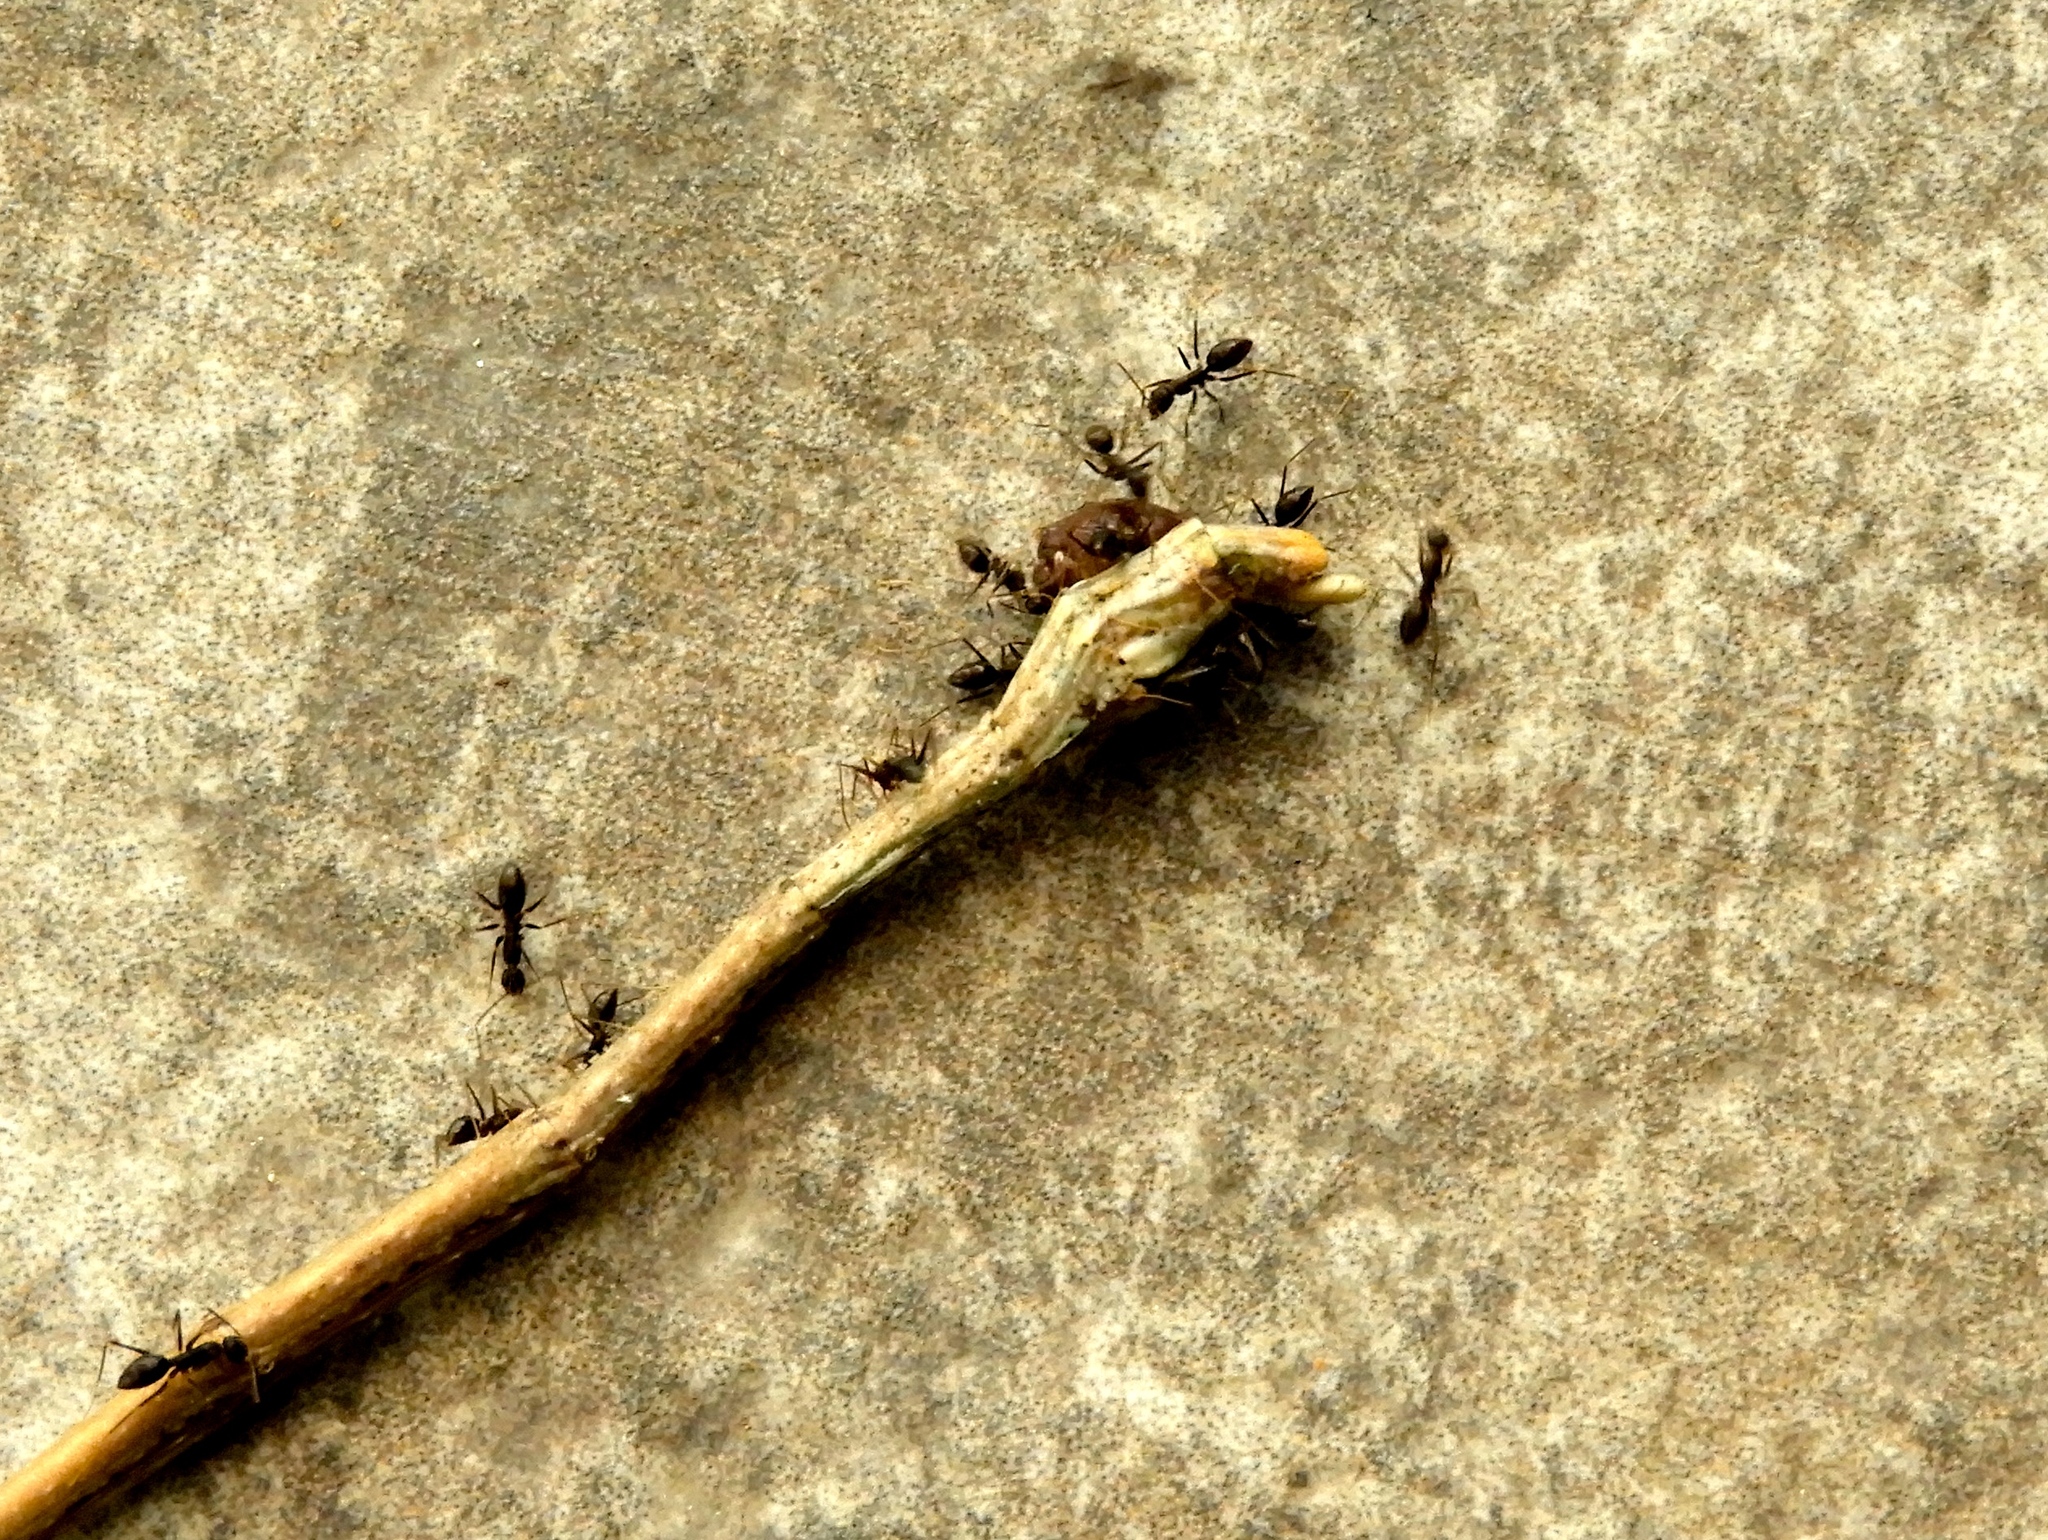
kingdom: Animalia
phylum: Arthropoda
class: Insecta
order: Hymenoptera
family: Formicidae
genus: Paratrechina
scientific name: Paratrechina longicornis
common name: Longhorned crazy ant
